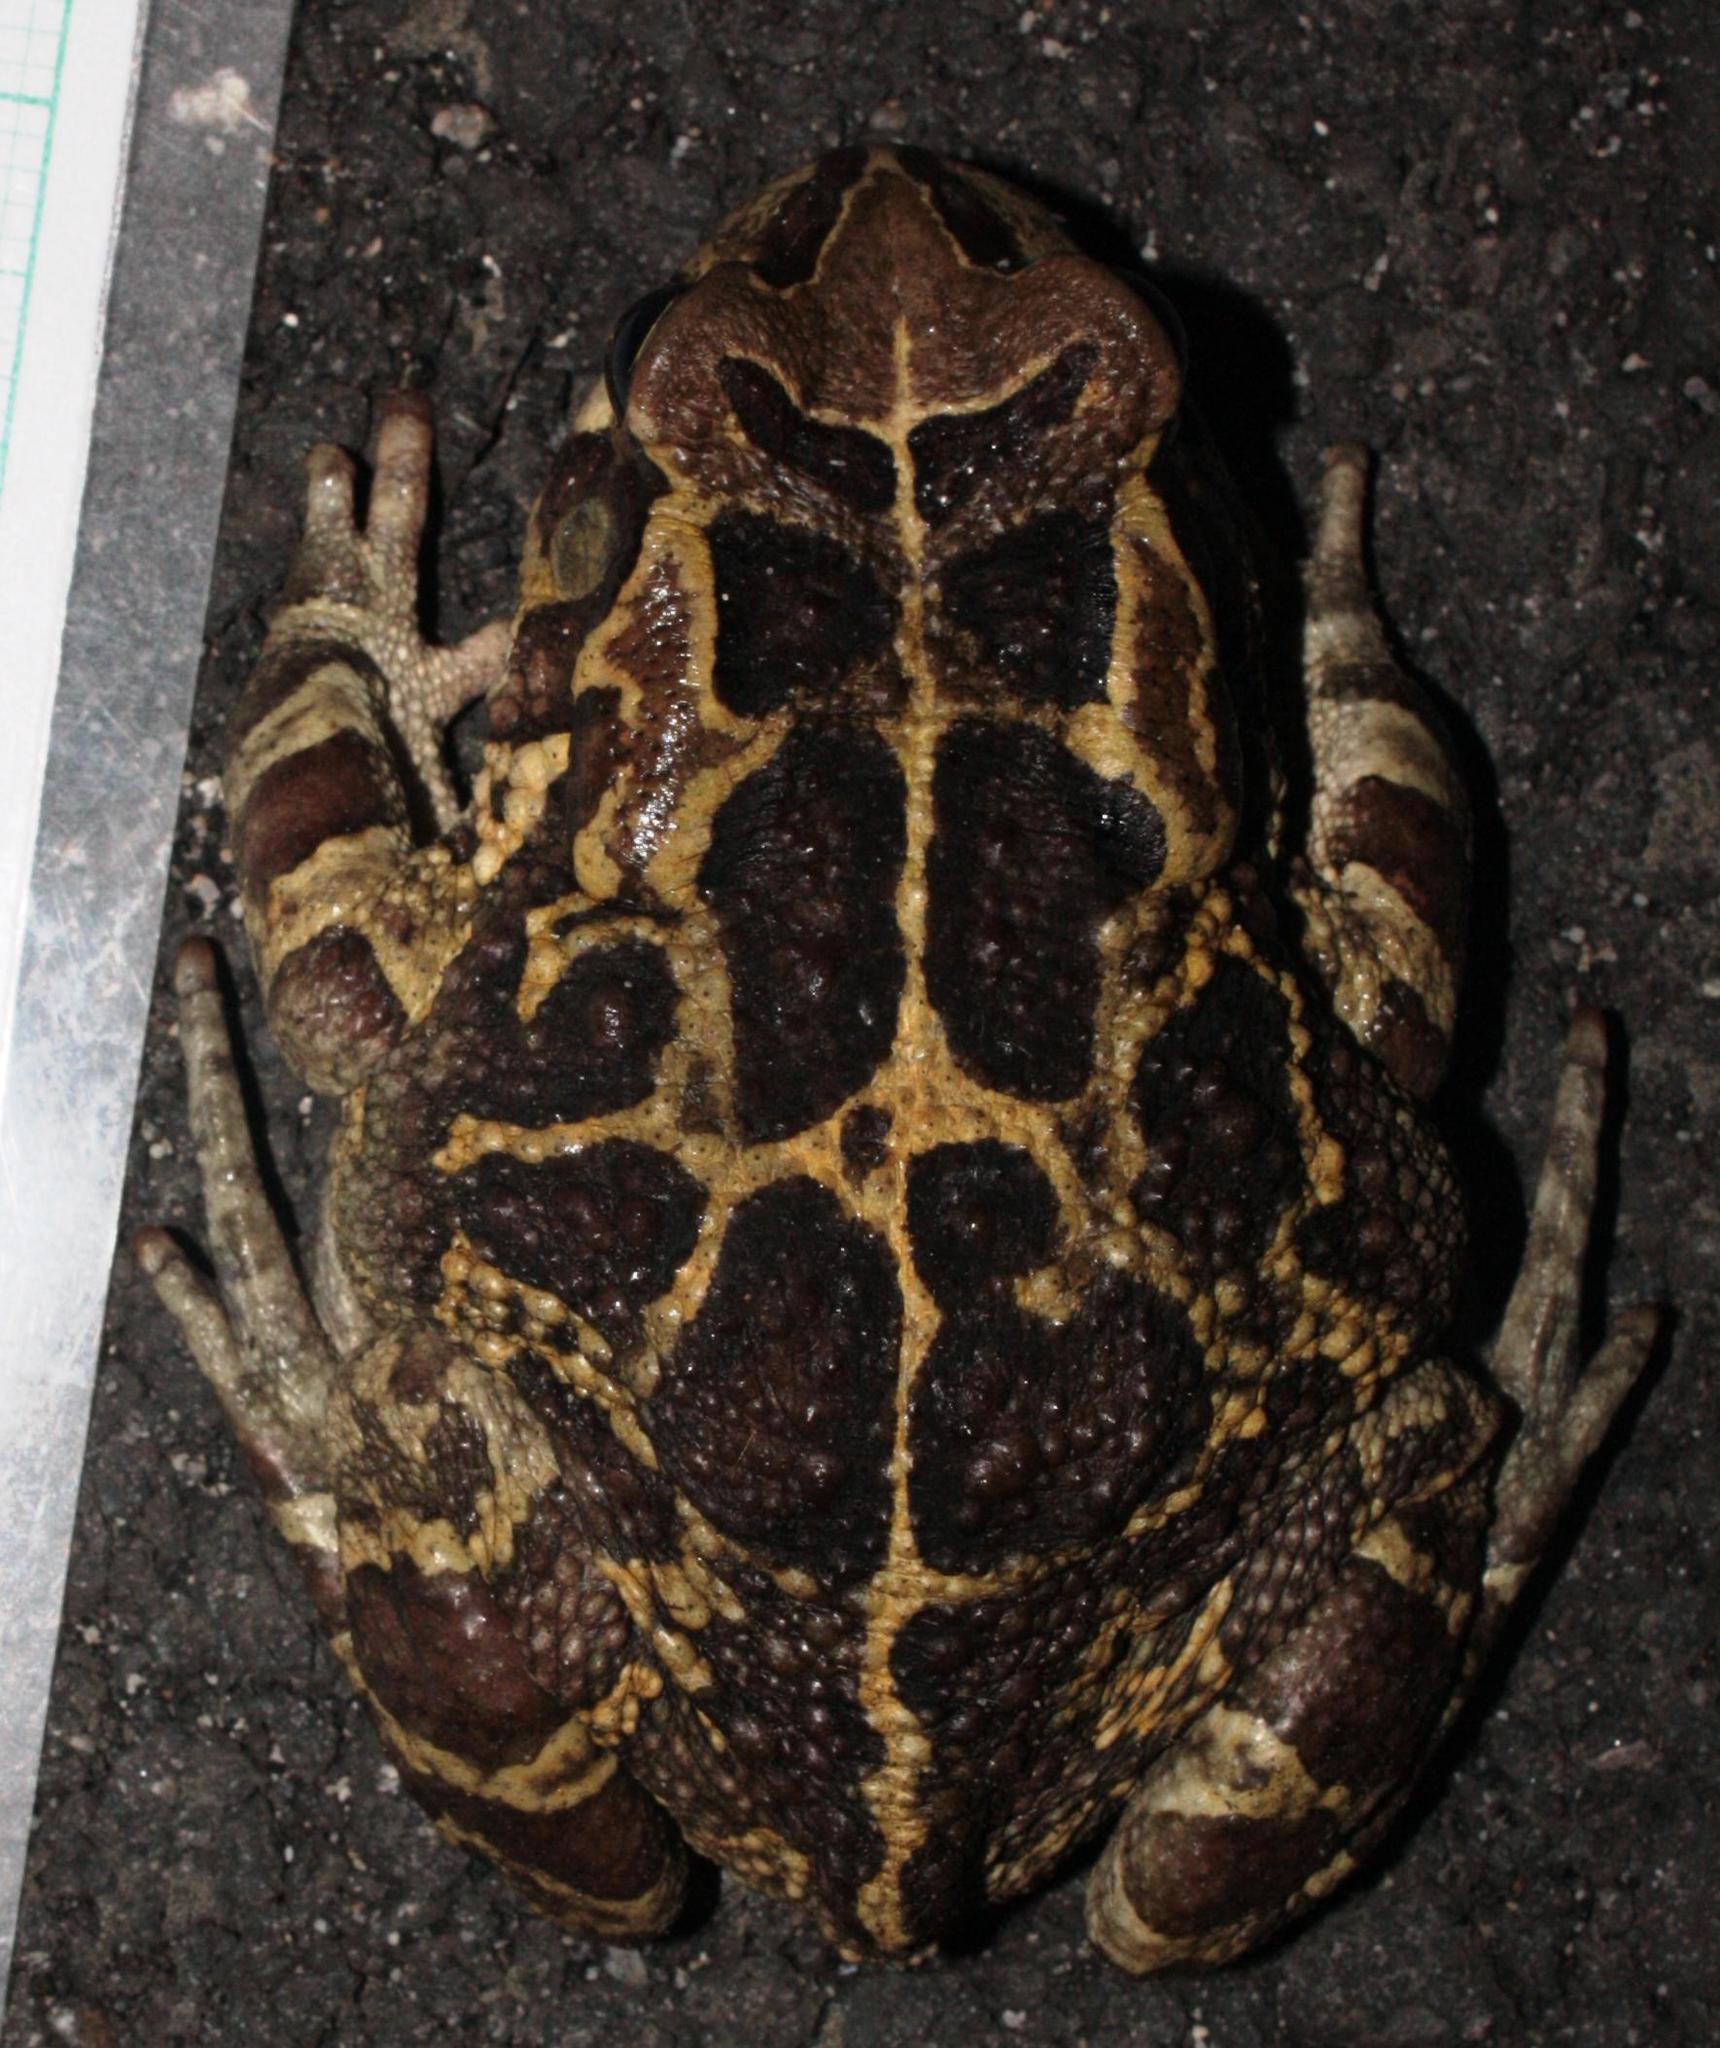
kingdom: Animalia
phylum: Chordata
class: Amphibia
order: Anura
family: Bufonidae
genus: Sclerophrys
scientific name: Sclerophrys pantherina
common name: Panther toad
